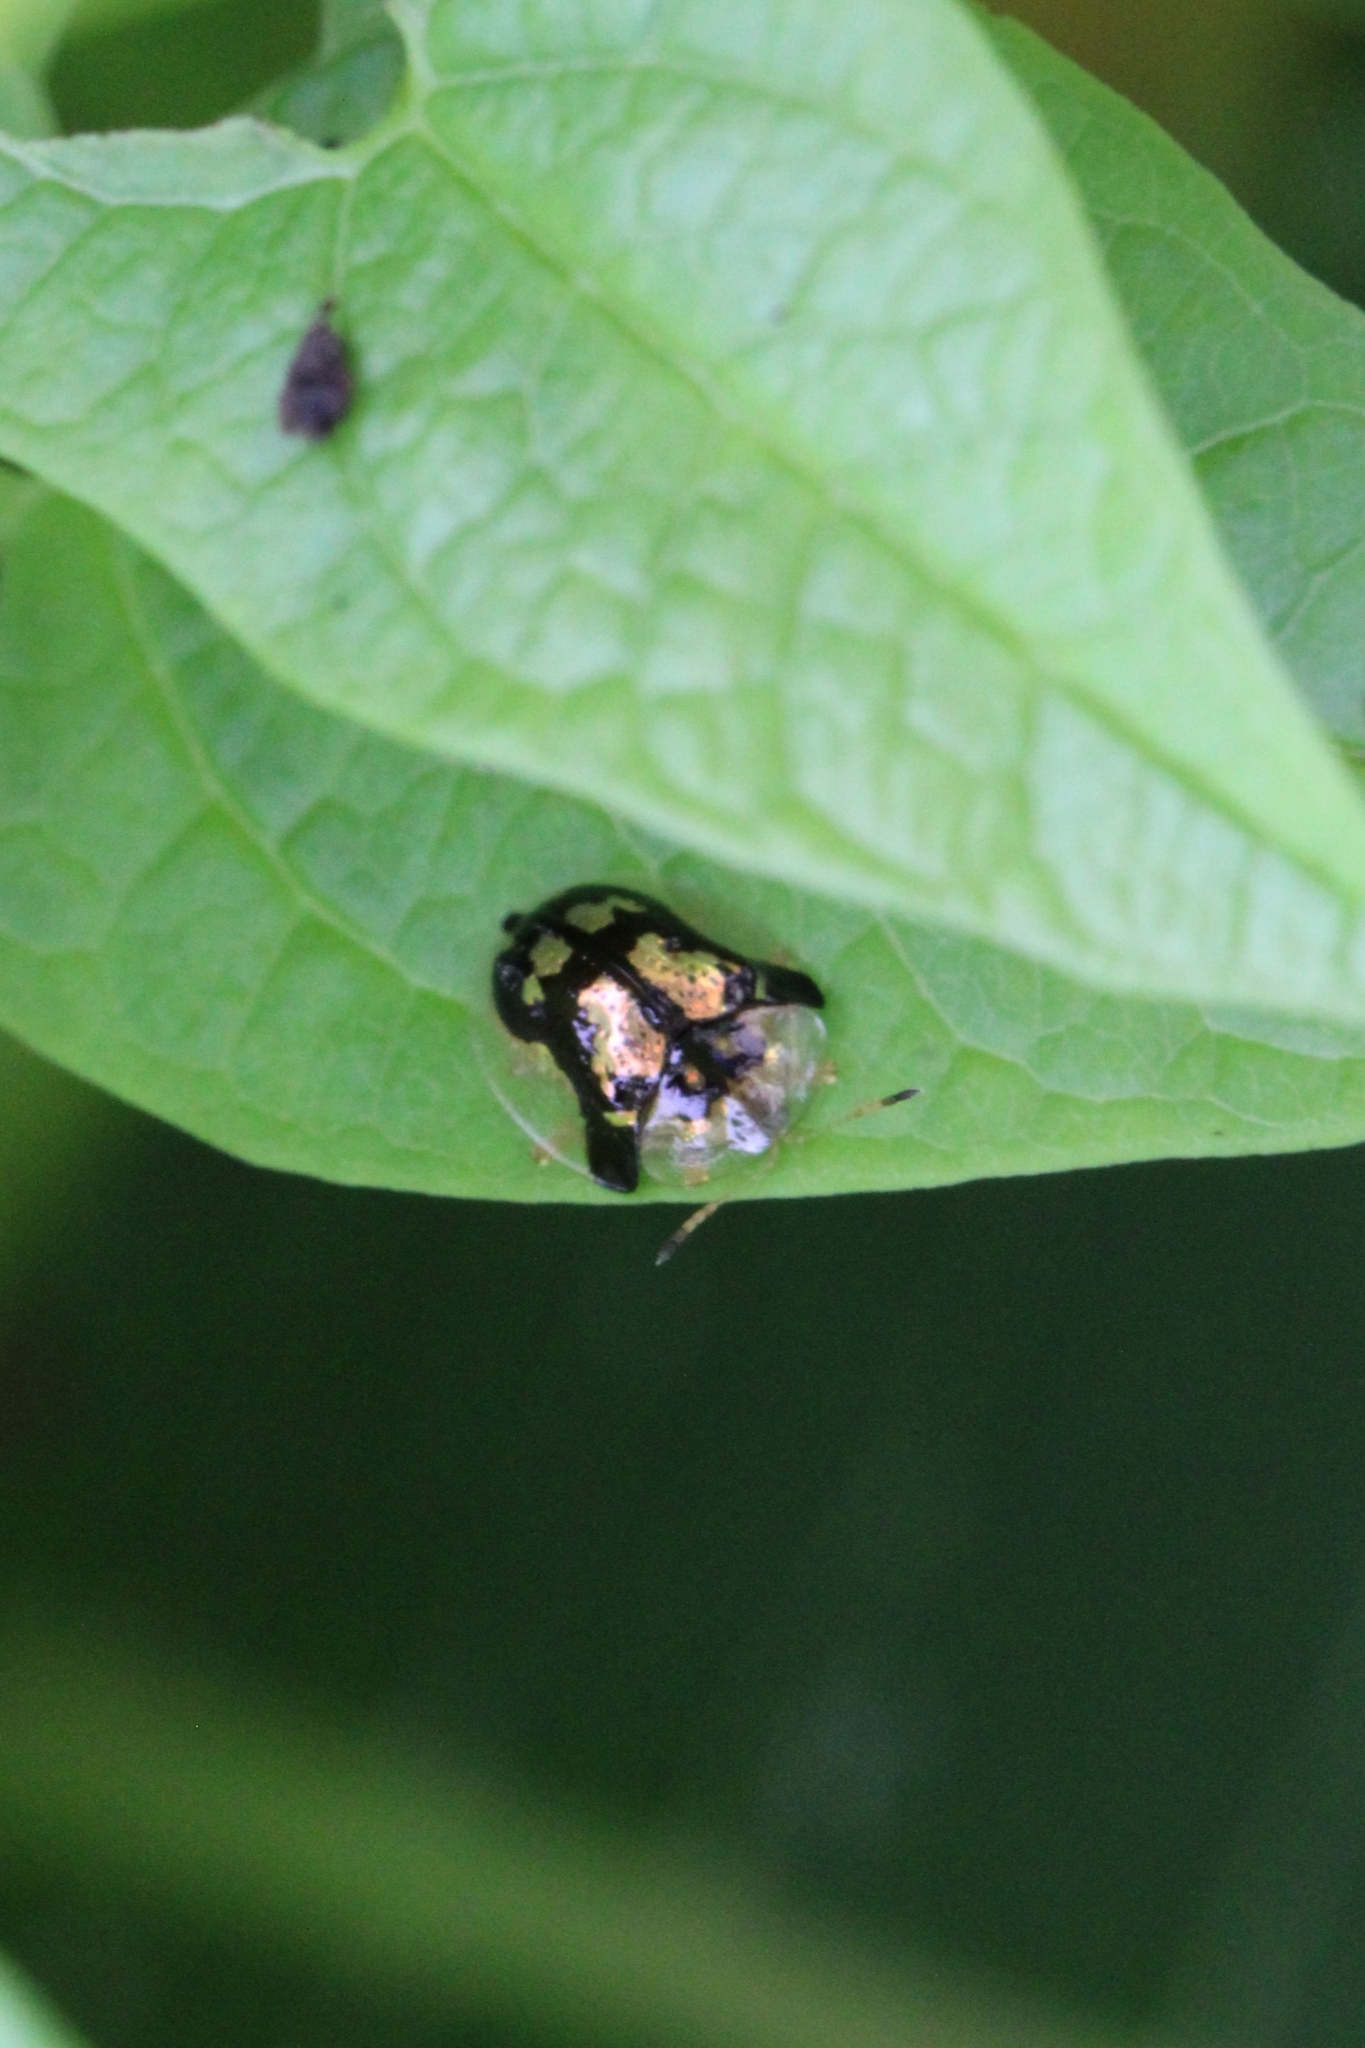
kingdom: Animalia
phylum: Arthropoda
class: Insecta
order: Coleoptera
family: Chrysomelidae
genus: Deloyala
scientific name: Deloyala guttata
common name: Mottled tortoise beetle
